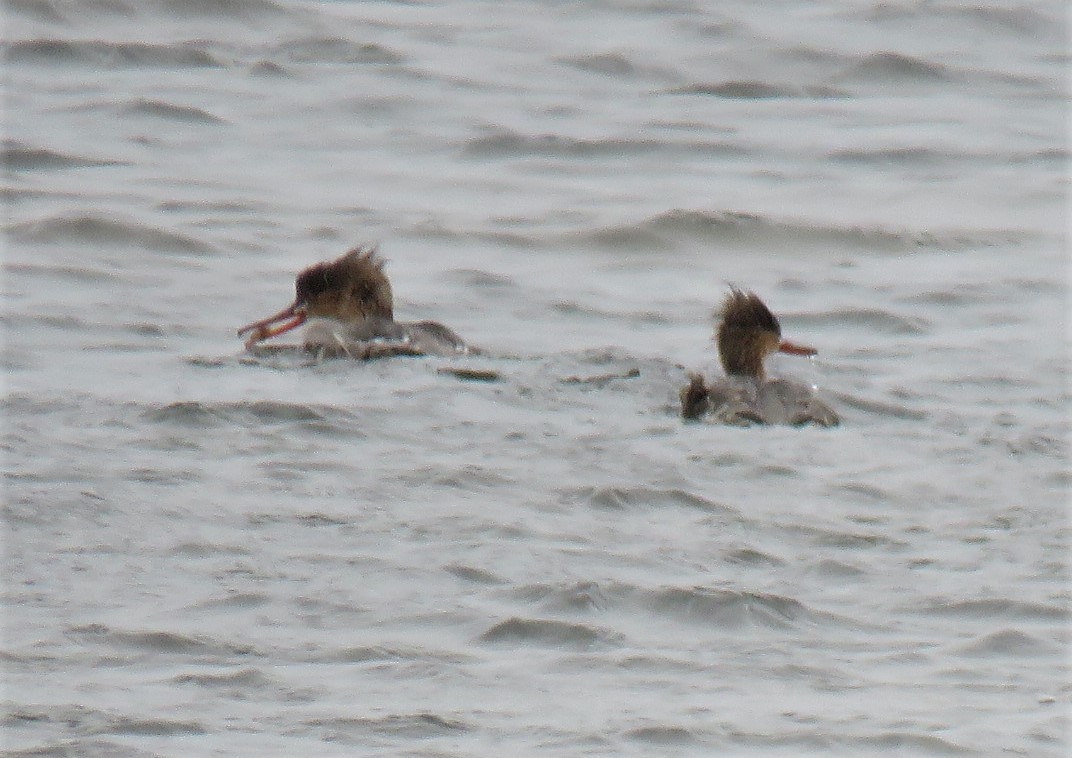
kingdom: Animalia
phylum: Chordata
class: Aves
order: Anseriformes
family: Anatidae
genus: Mergus
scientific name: Mergus serrator
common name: Red-breasted merganser
